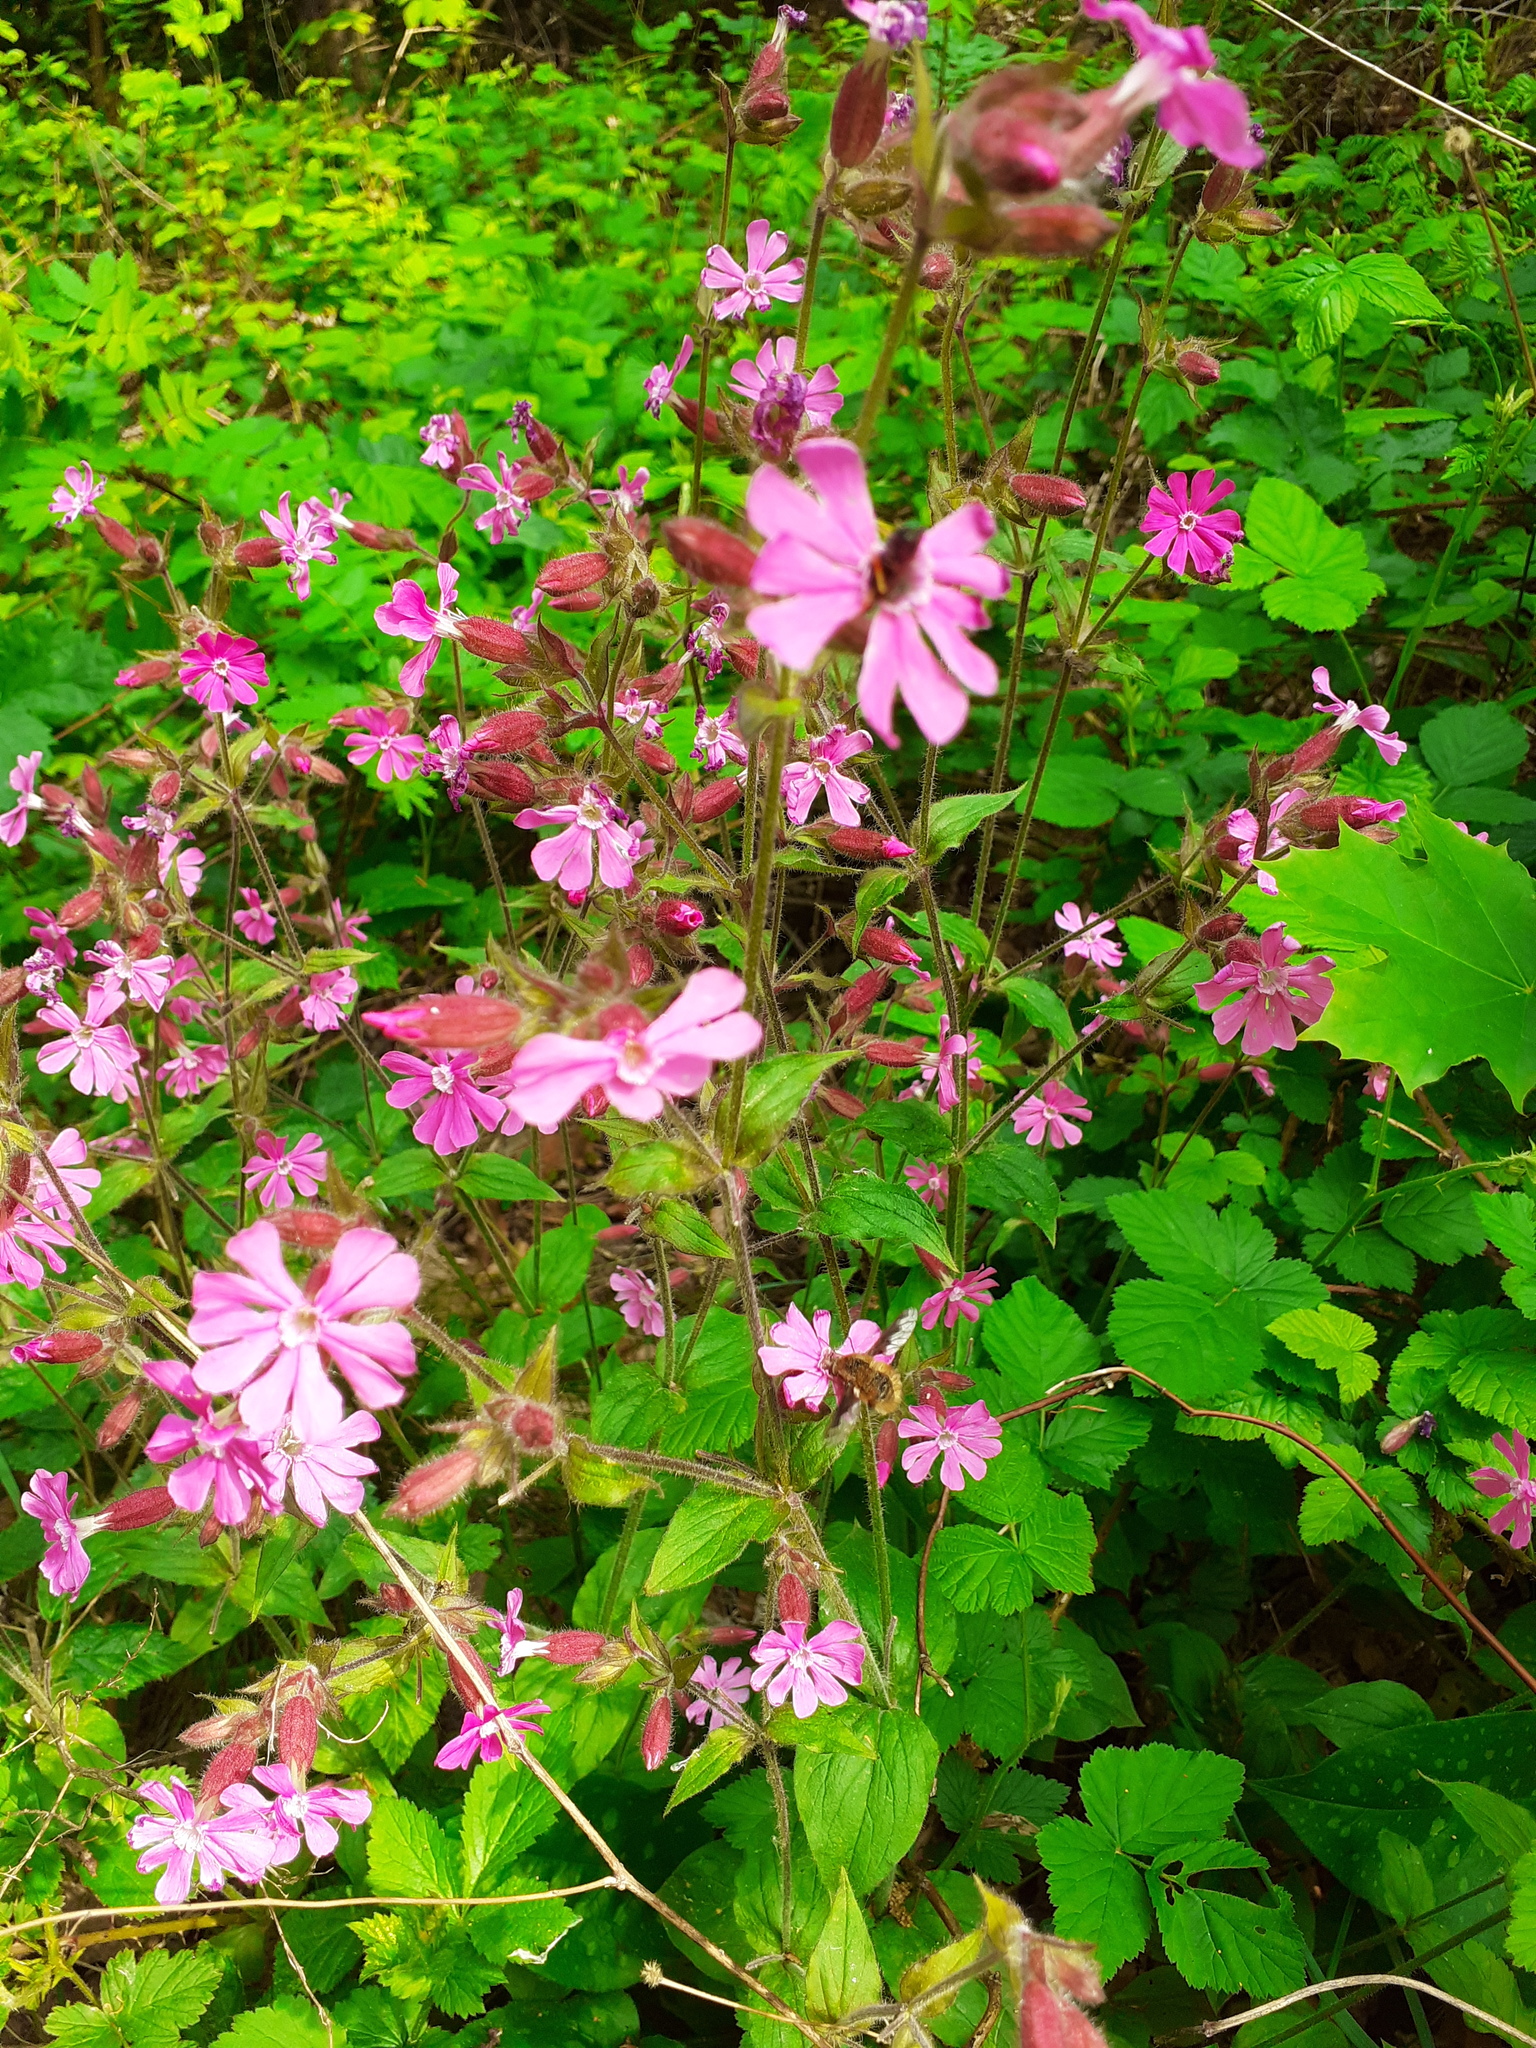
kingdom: Plantae
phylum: Tracheophyta
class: Magnoliopsida
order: Caryophyllales
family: Caryophyllaceae
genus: Silene
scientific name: Silene dioica
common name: Red campion
